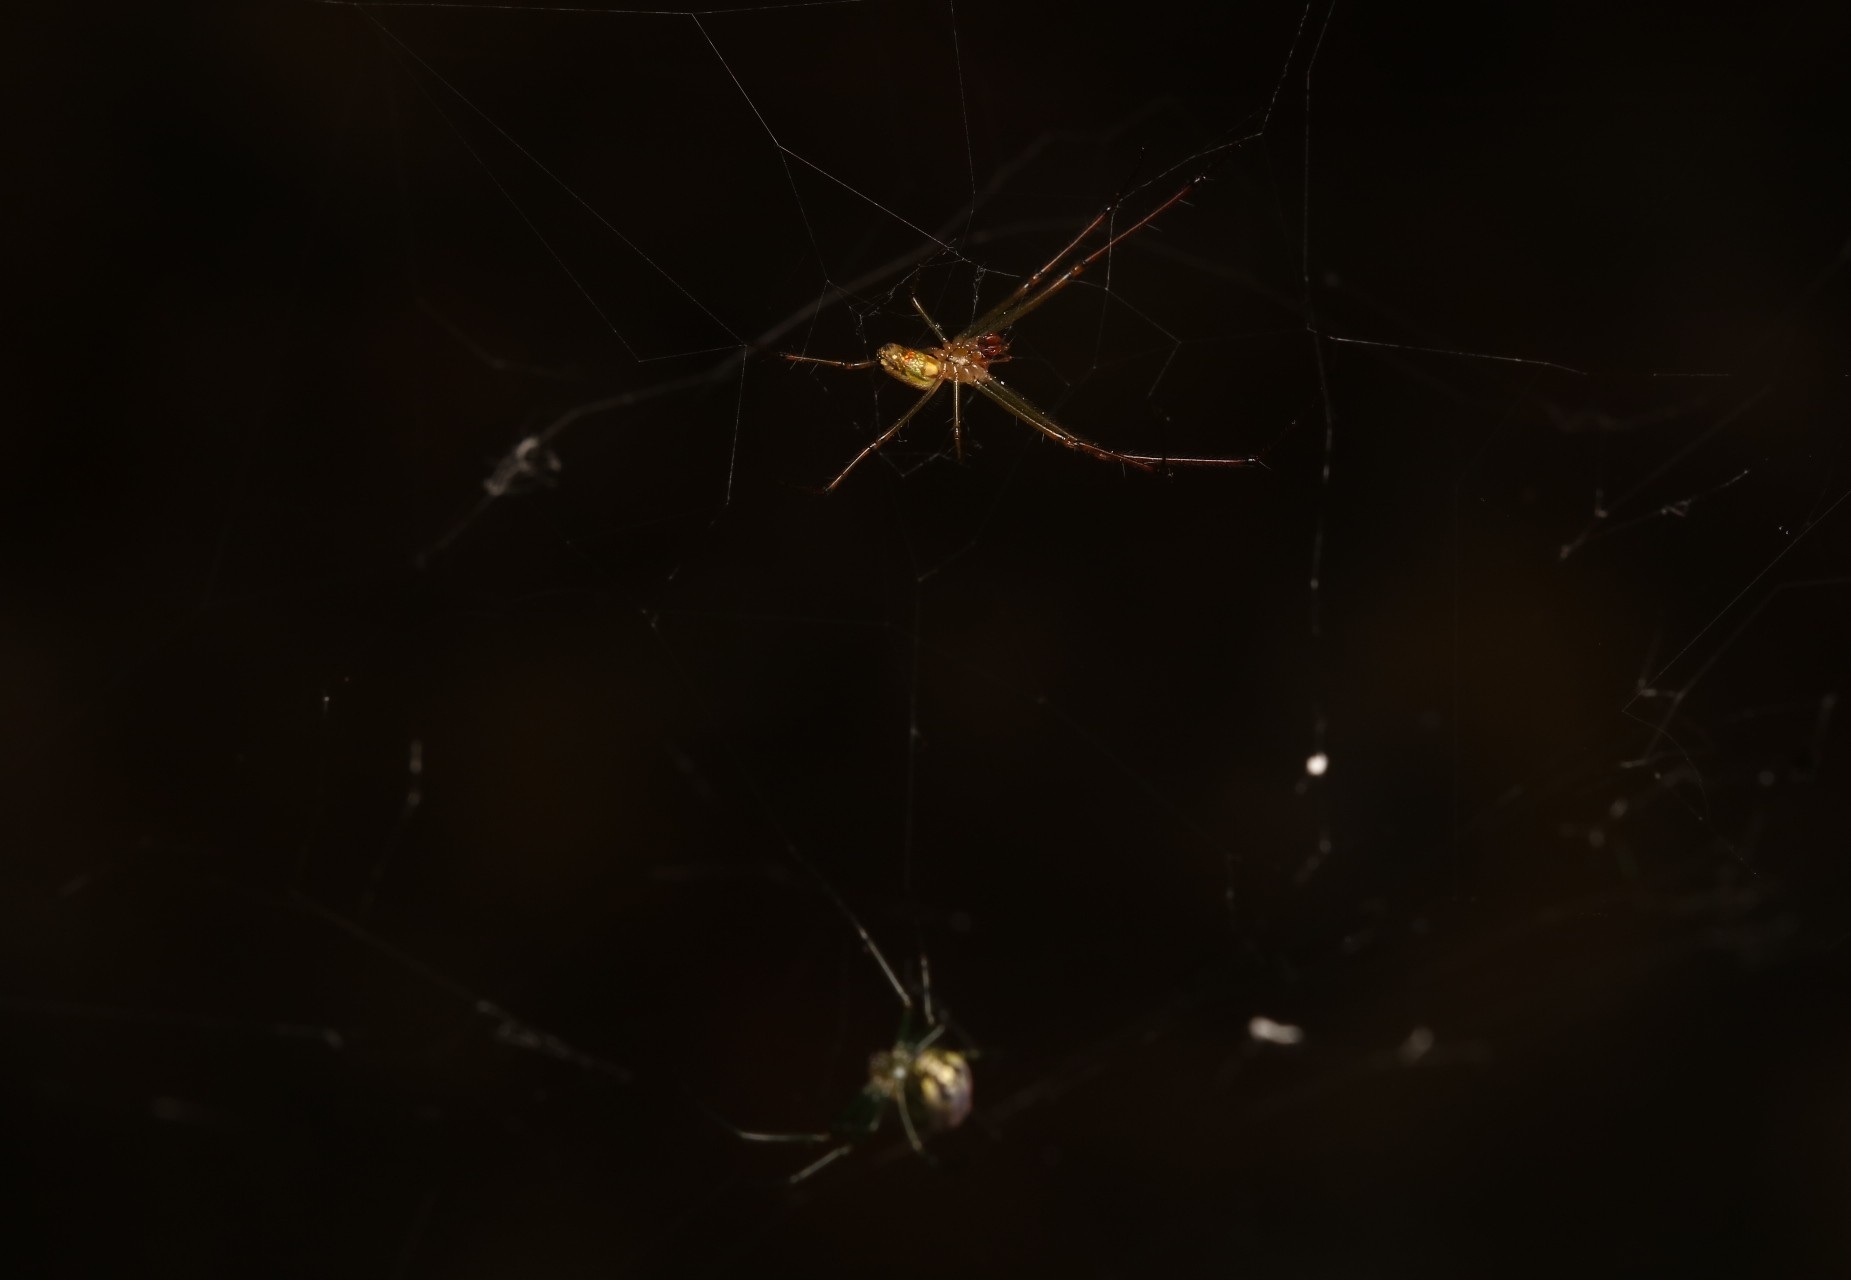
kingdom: Animalia
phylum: Arthropoda
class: Arachnida
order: Araneae
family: Tetragnathidae
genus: Leucauge
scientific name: Leucauge venusta
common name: Longjawed orb weavers
